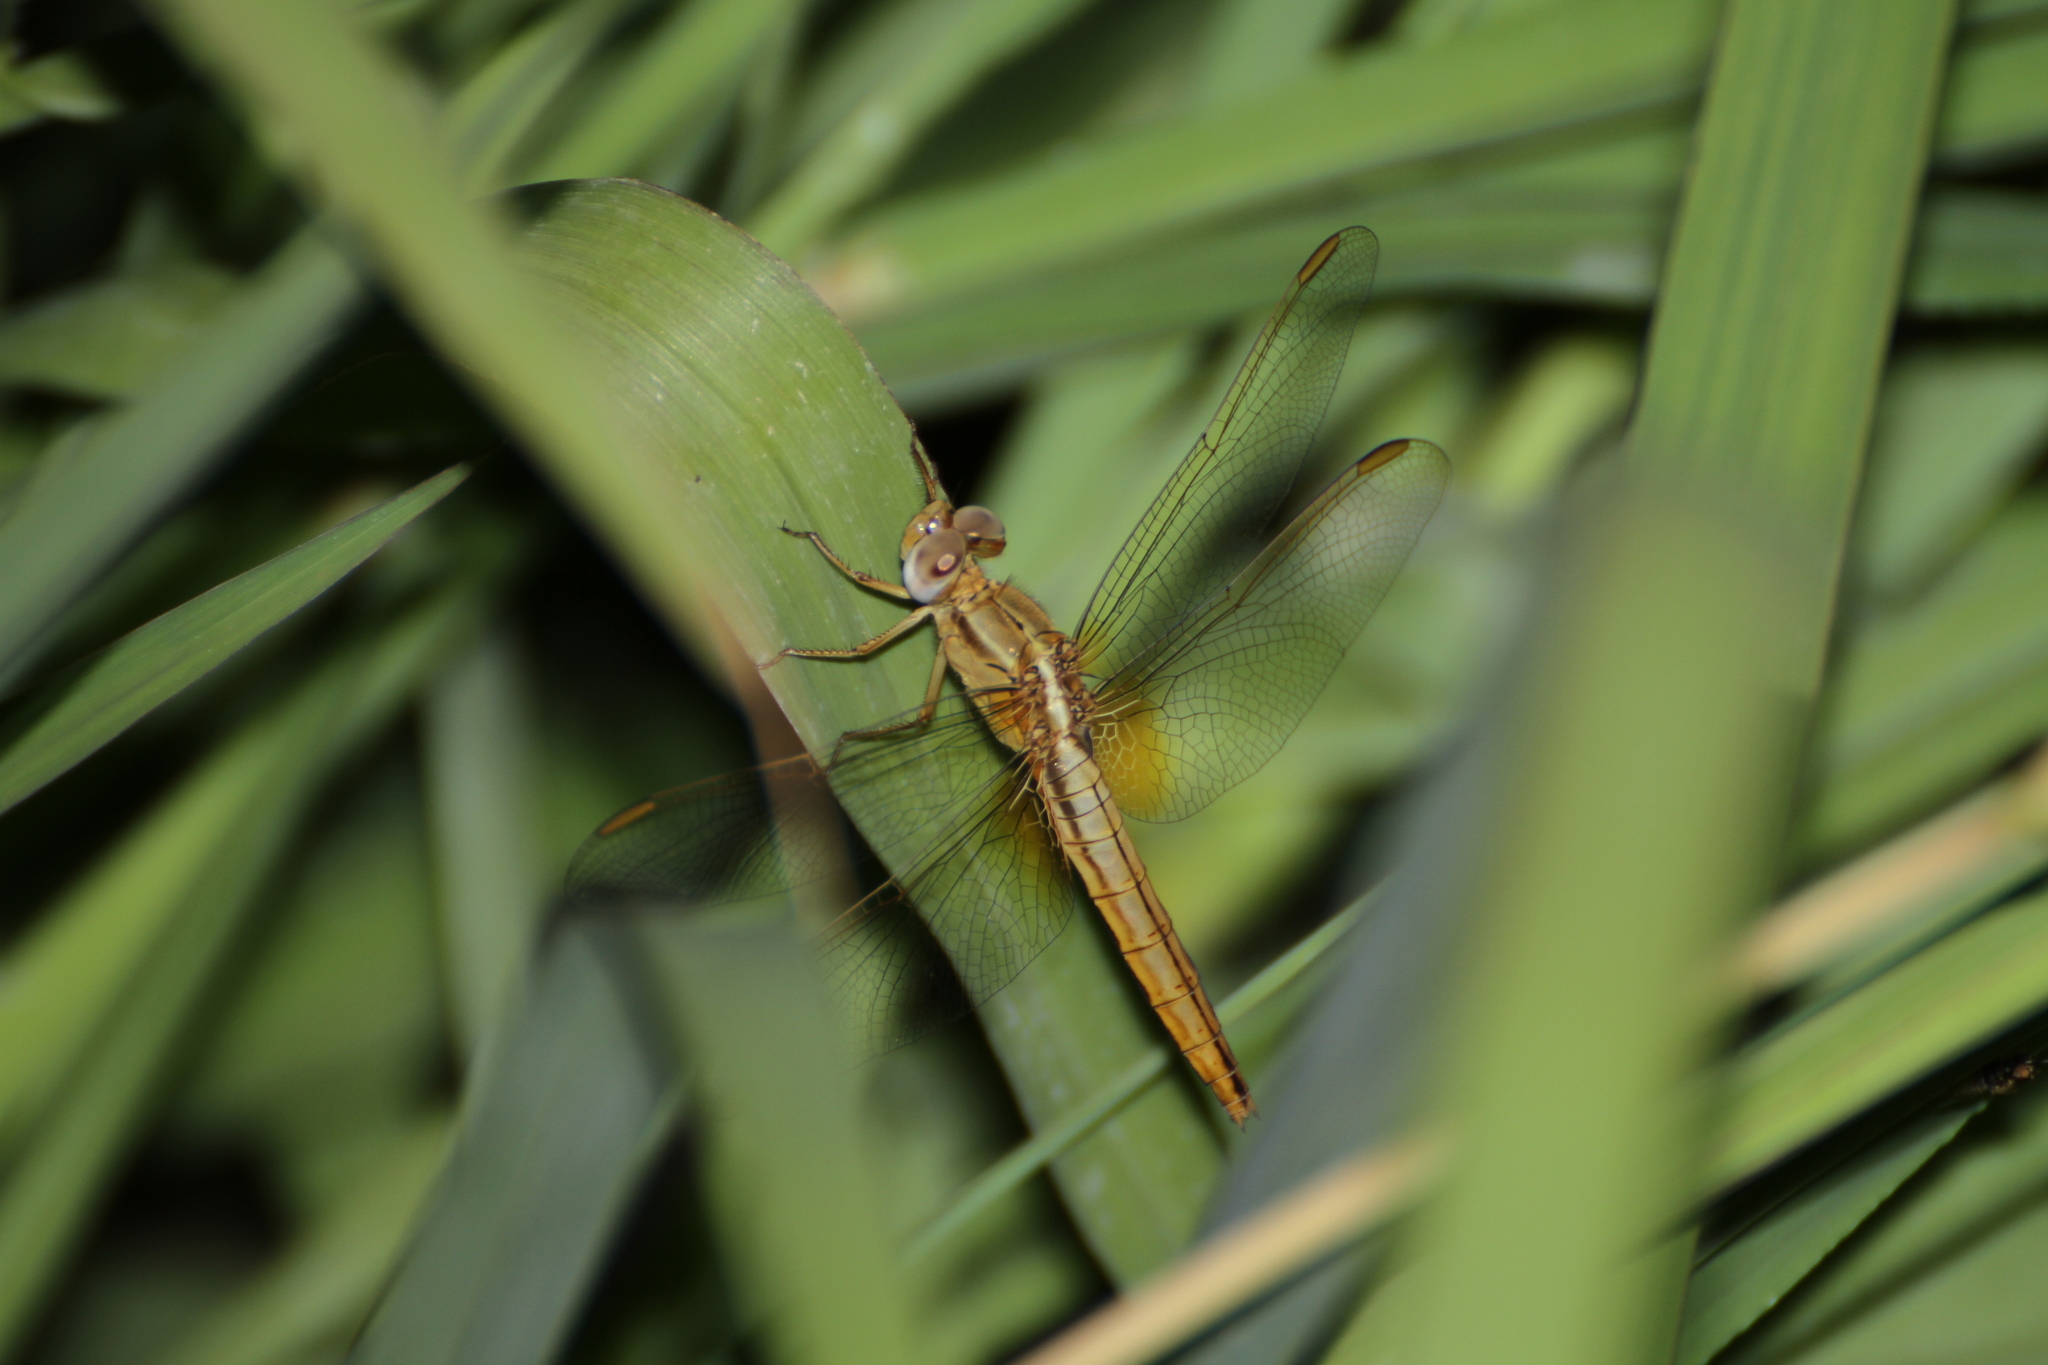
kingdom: Animalia
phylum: Arthropoda
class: Insecta
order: Odonata
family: Libellulidae
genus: Crocothemis
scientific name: Crocothemis erythraea
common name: Scarlet dragonfly
